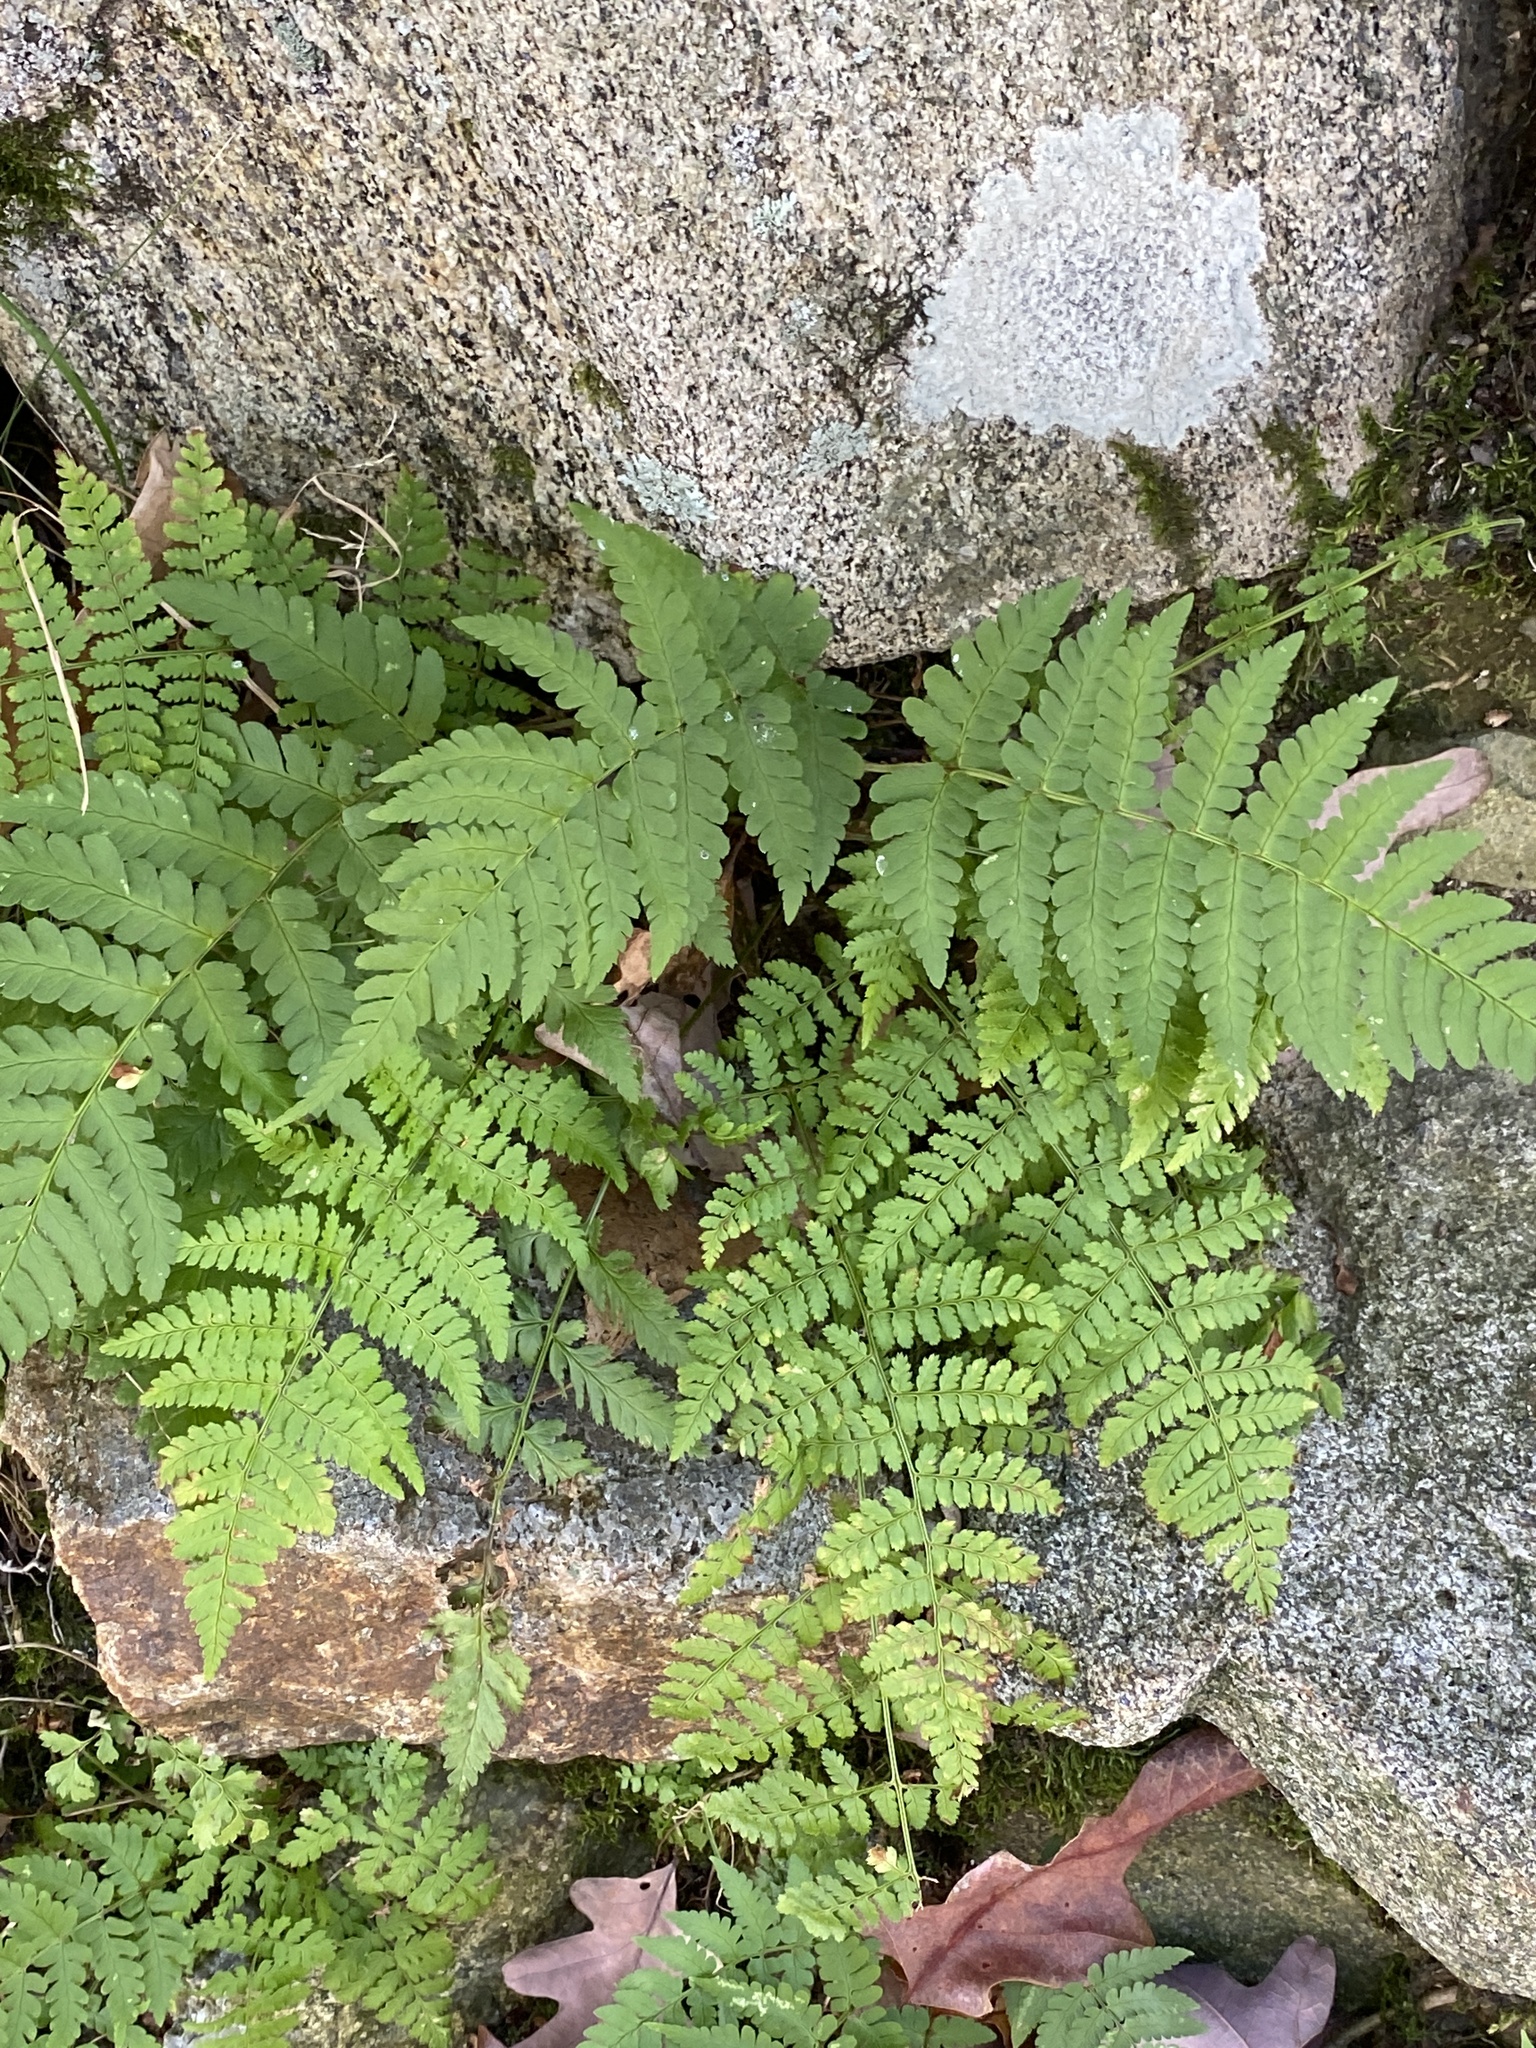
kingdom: Plantae
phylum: Tracheophyta
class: Polypodiopsida
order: Polypodiales
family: Dryopteridaceae
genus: Dryopteris
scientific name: Dryopteris marginalis
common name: Marginal wood fern
